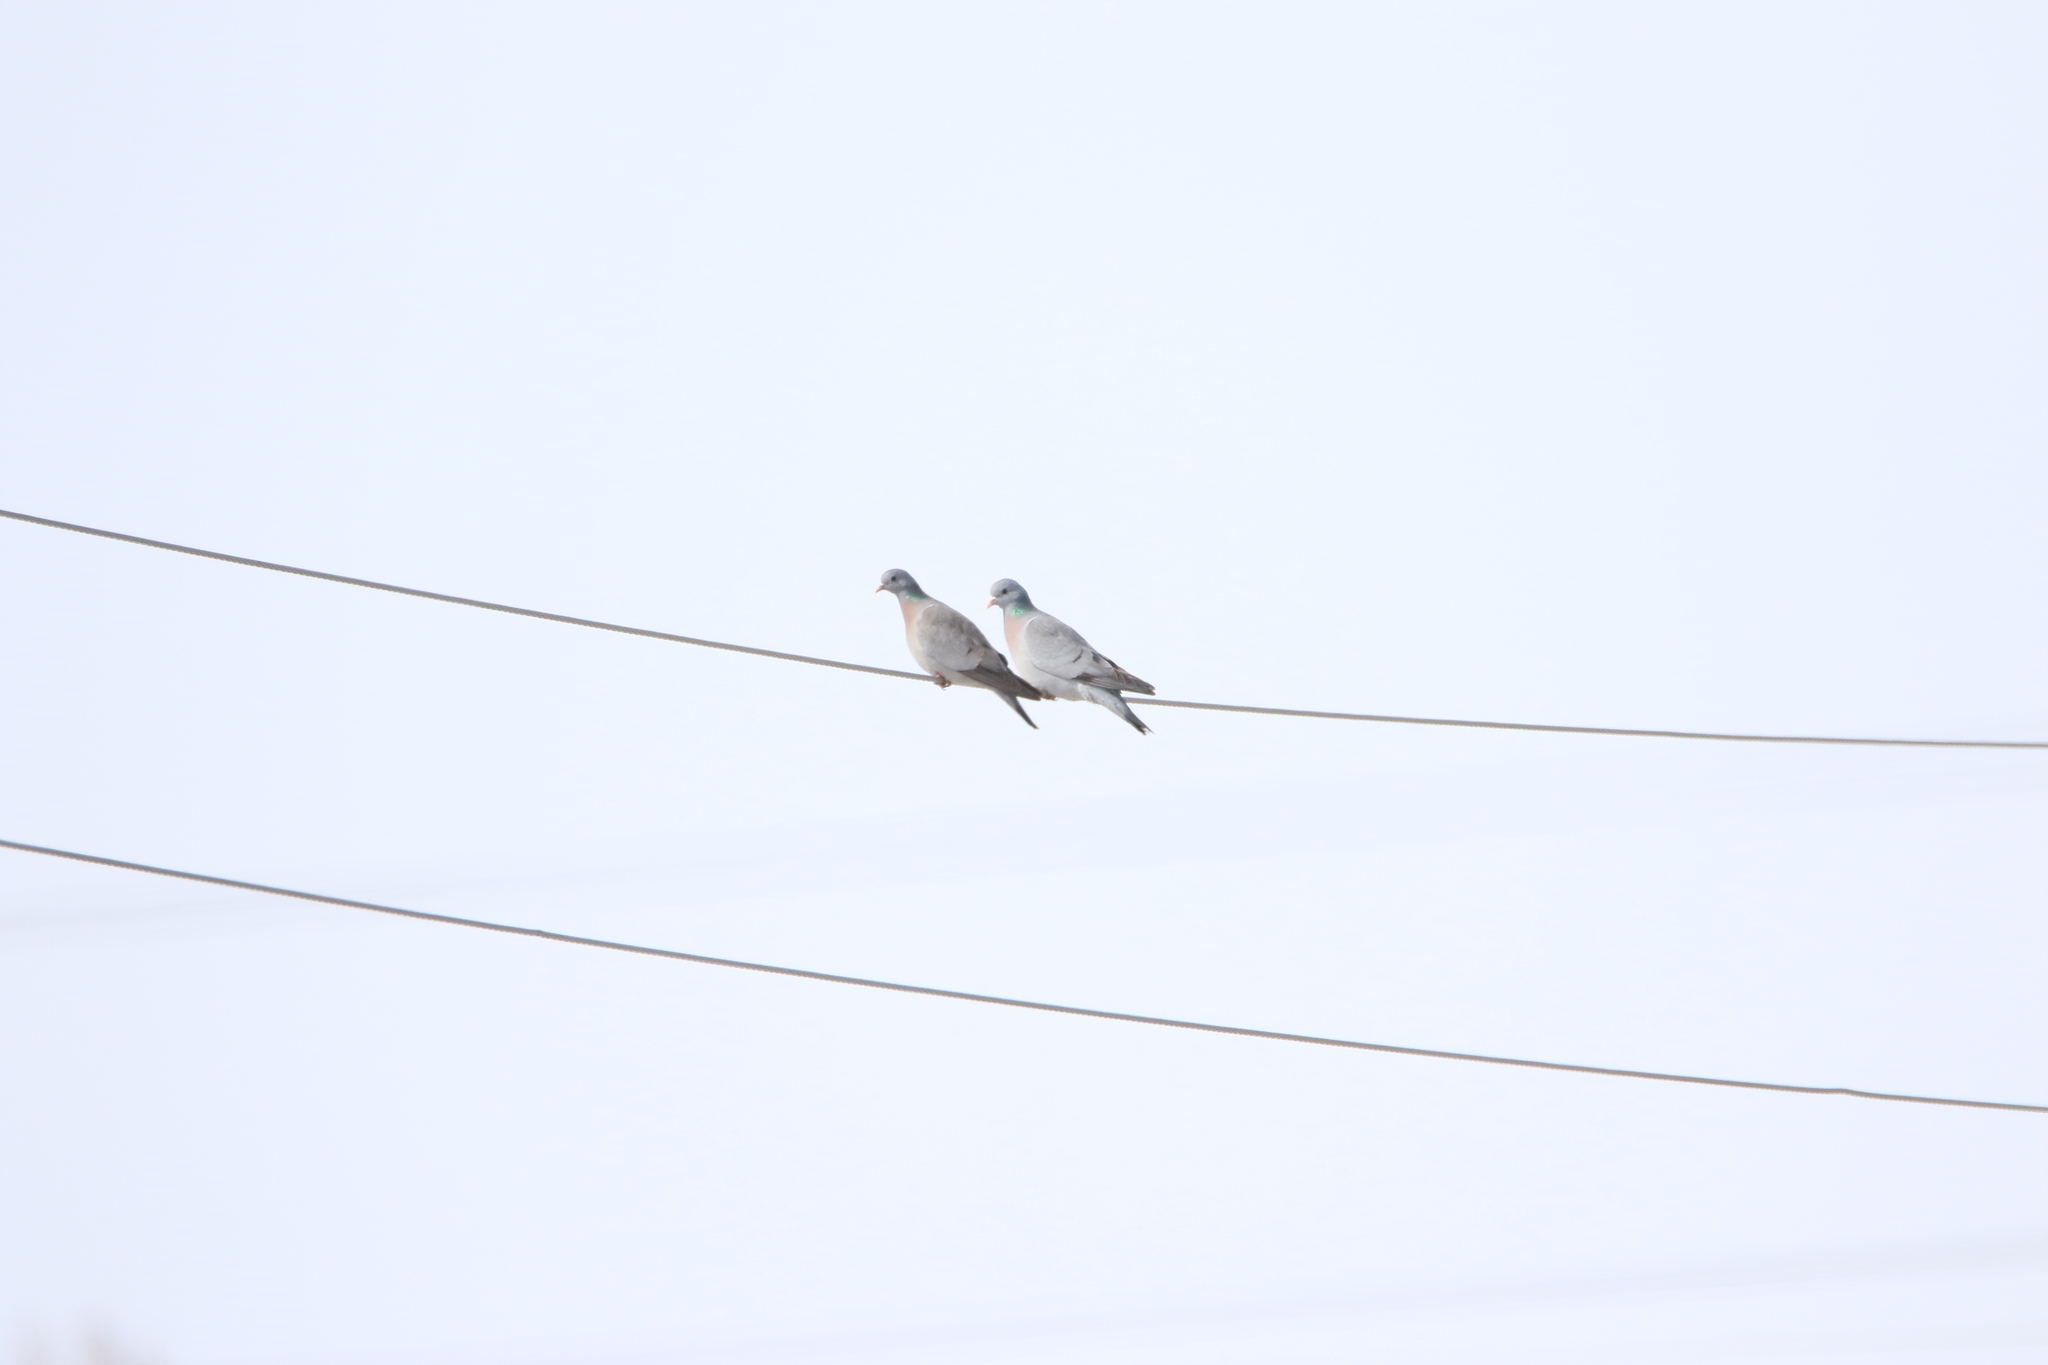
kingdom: Animalia
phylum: Chordata
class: Aves
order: Columbiformes
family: Columbidae
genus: Columba
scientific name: Columba oenas
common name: Stock dove
